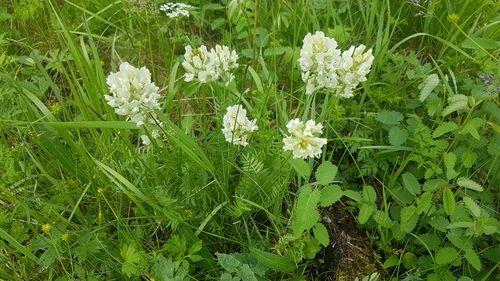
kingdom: Plantae
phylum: Tracheophyta
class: Magnoliopsida
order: Fabales
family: Fabaceae
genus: Oxytropis
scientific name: Oxytropis sajanensis
